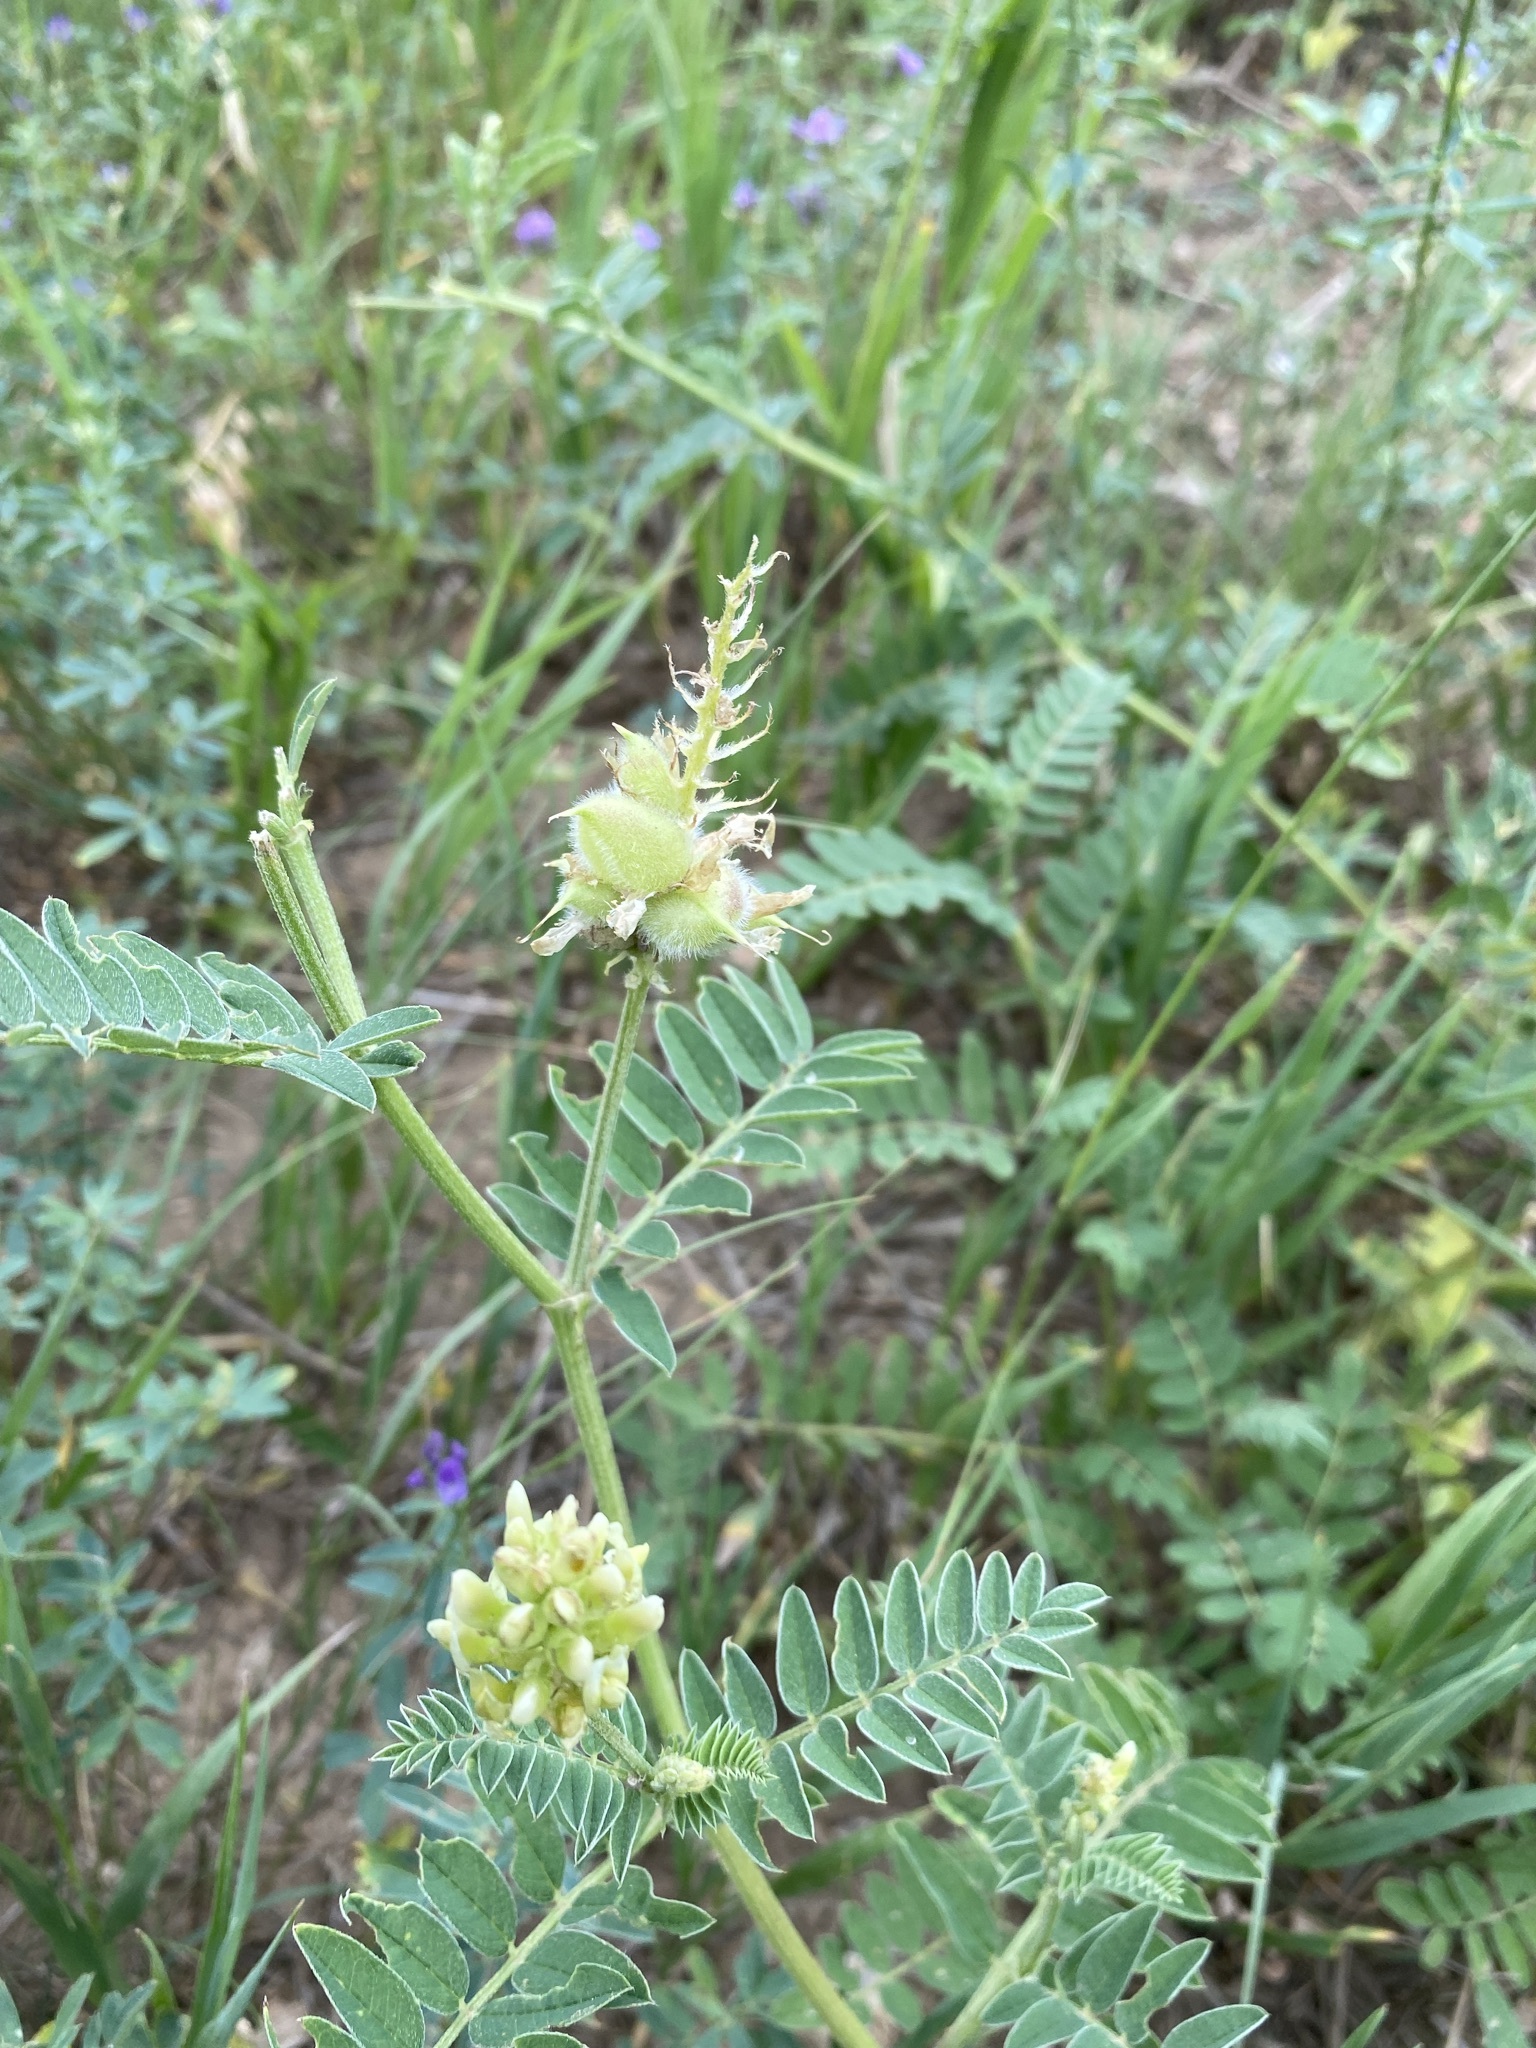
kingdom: Plantae
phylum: Tracheophyta
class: Magnoliopsida
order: Fabales
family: Fabaceae
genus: Astragalus
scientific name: Astragalus cicer
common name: Chick-pea milk-vetch
